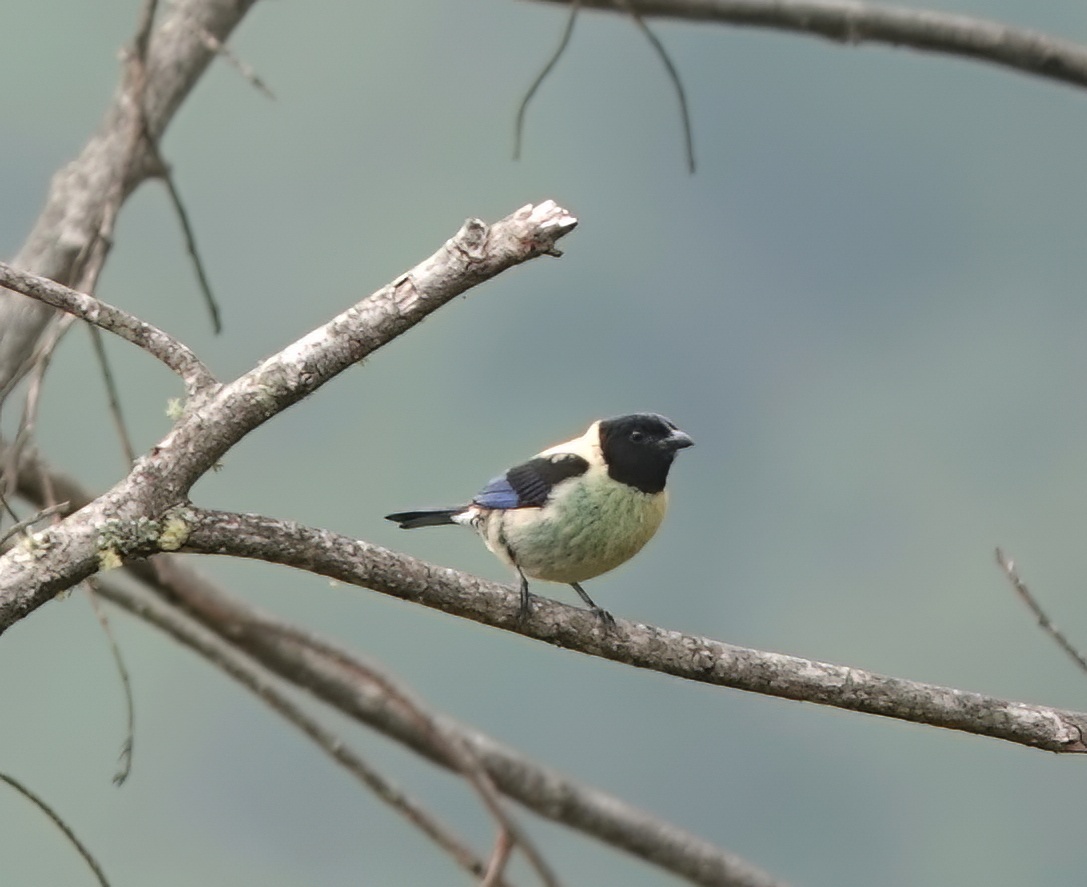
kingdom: Animalia
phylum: Chordata
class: Aves
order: Passeriformes
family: Thraupidae
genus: Stilpnia
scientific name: Stilpnia cyanoptera
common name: Black-headed tanager
